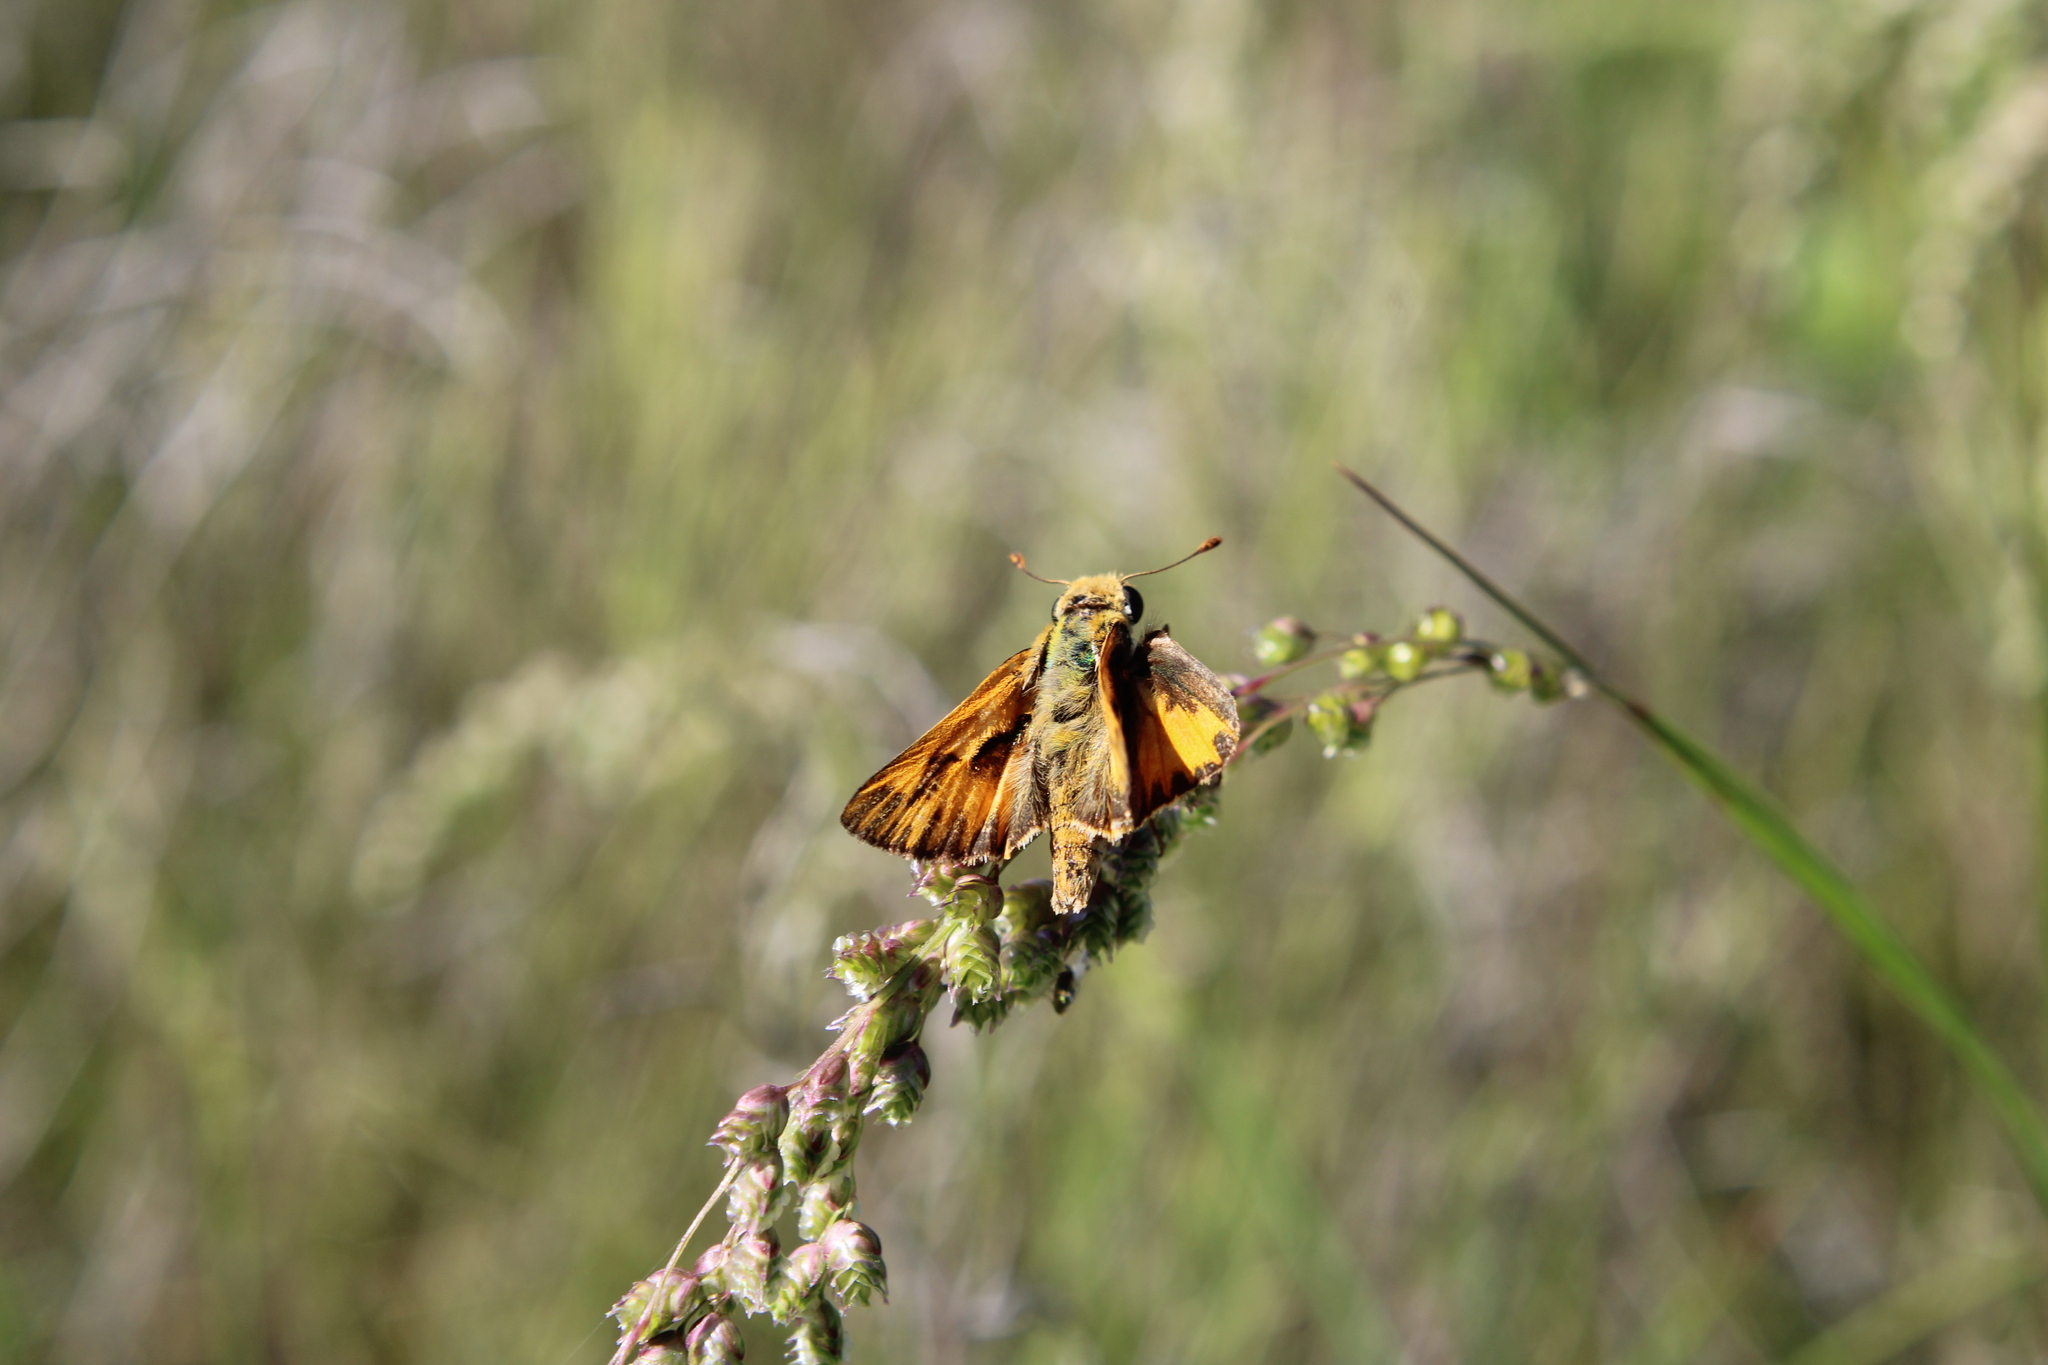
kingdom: Animalia
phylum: Arthropoda
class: Insecta
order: Lepidoptera
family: Hesperiidae
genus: Hylephila
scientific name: Hylephila phyleus
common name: Fiery skipper
